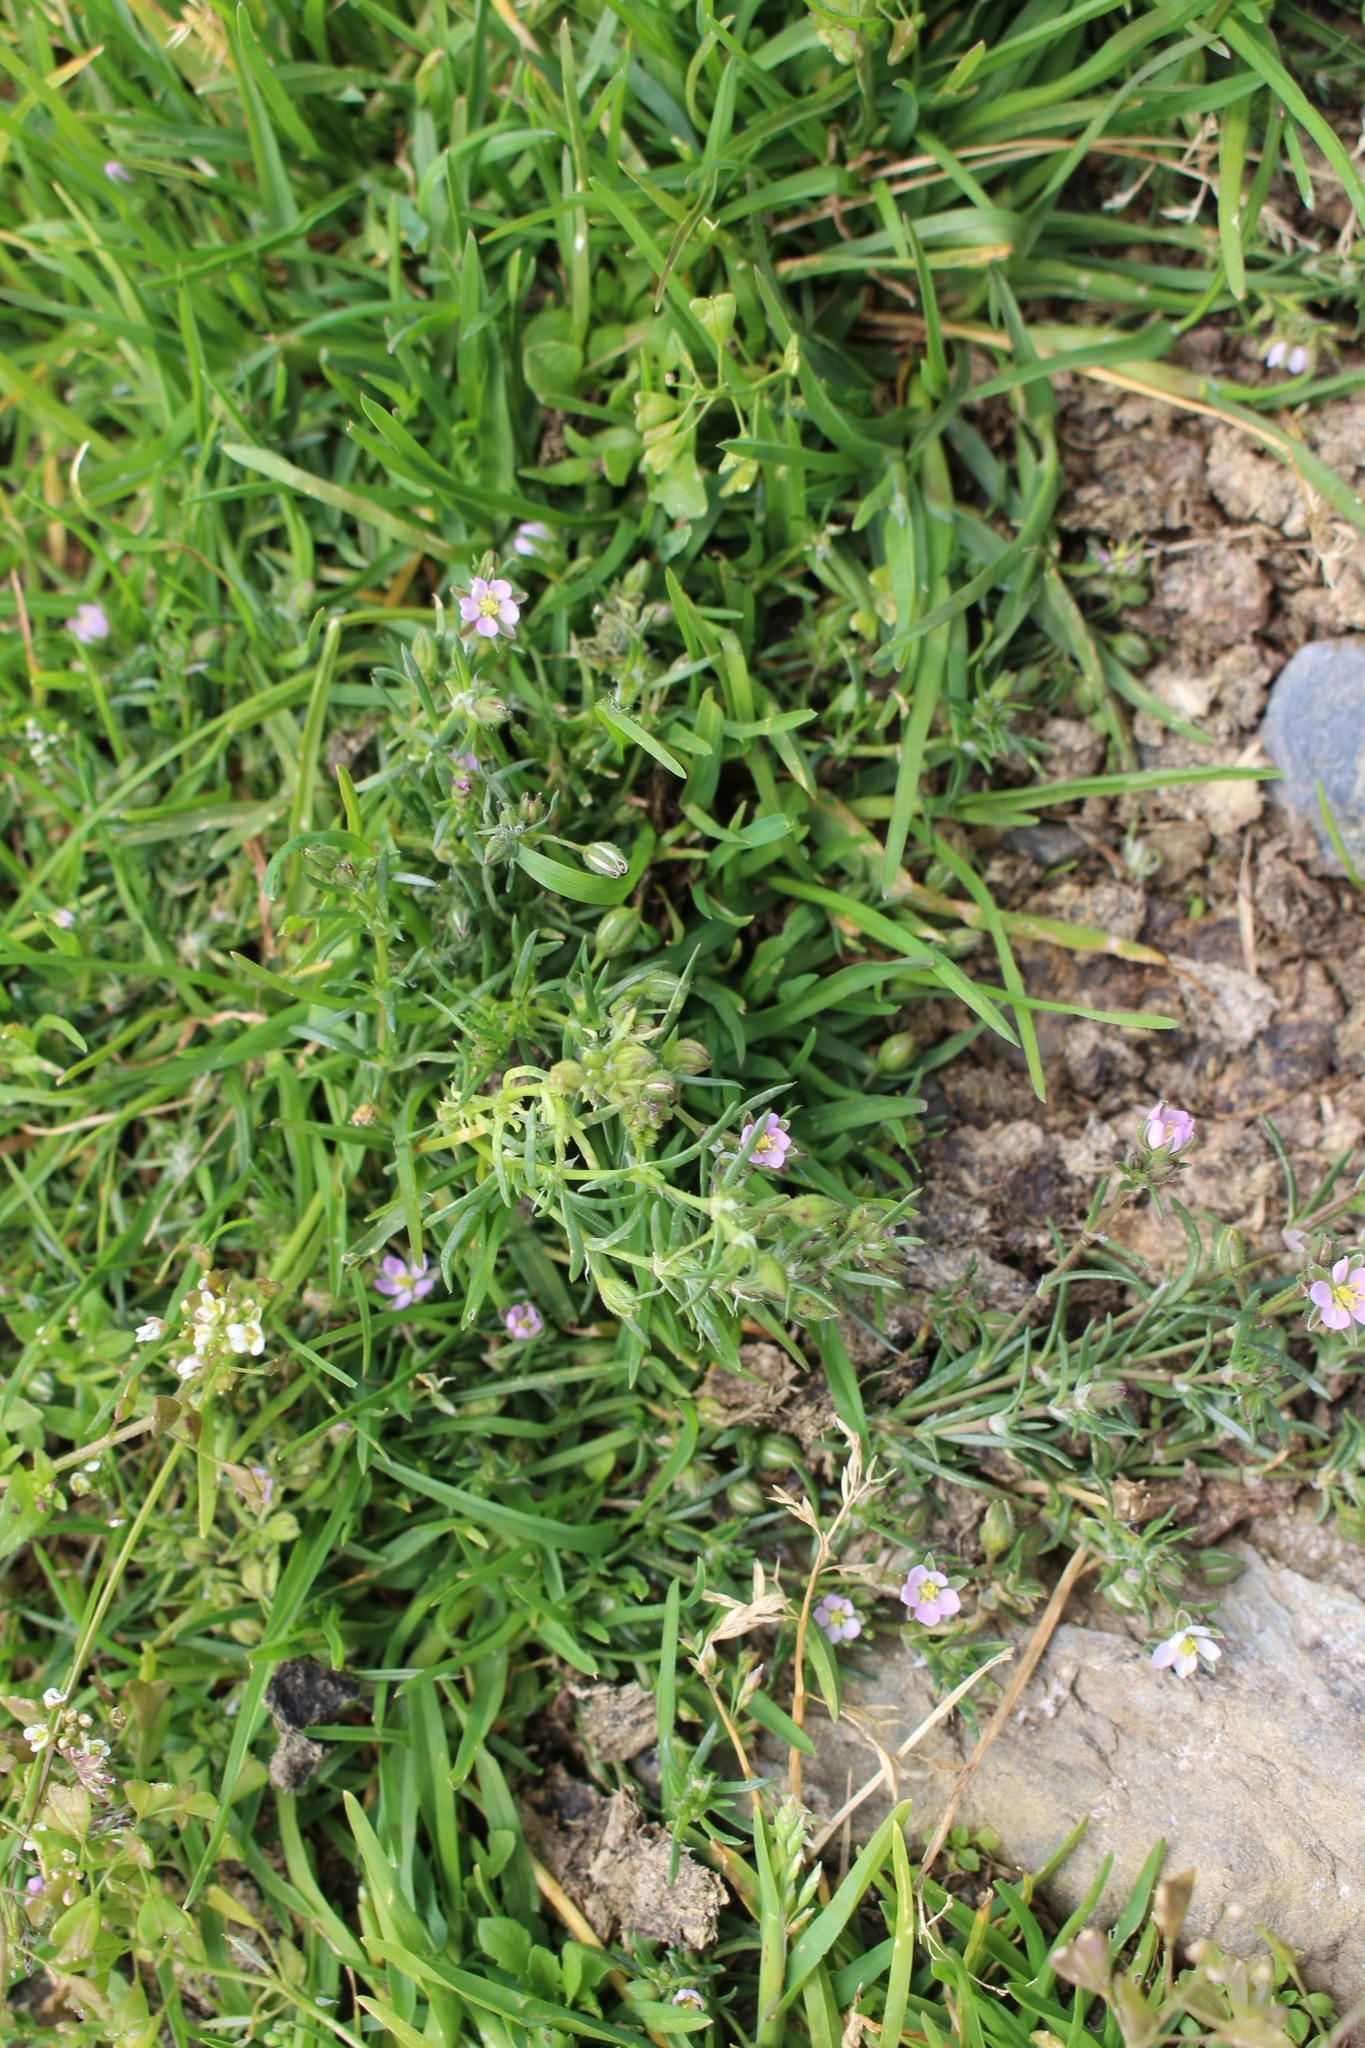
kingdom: Plantae
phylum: Tracheophyta
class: Magnoliopsida
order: Caryophyllales
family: Caryophyllaceae
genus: Spergularia
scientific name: Spergularia rubra
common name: Red sand-spurrey
